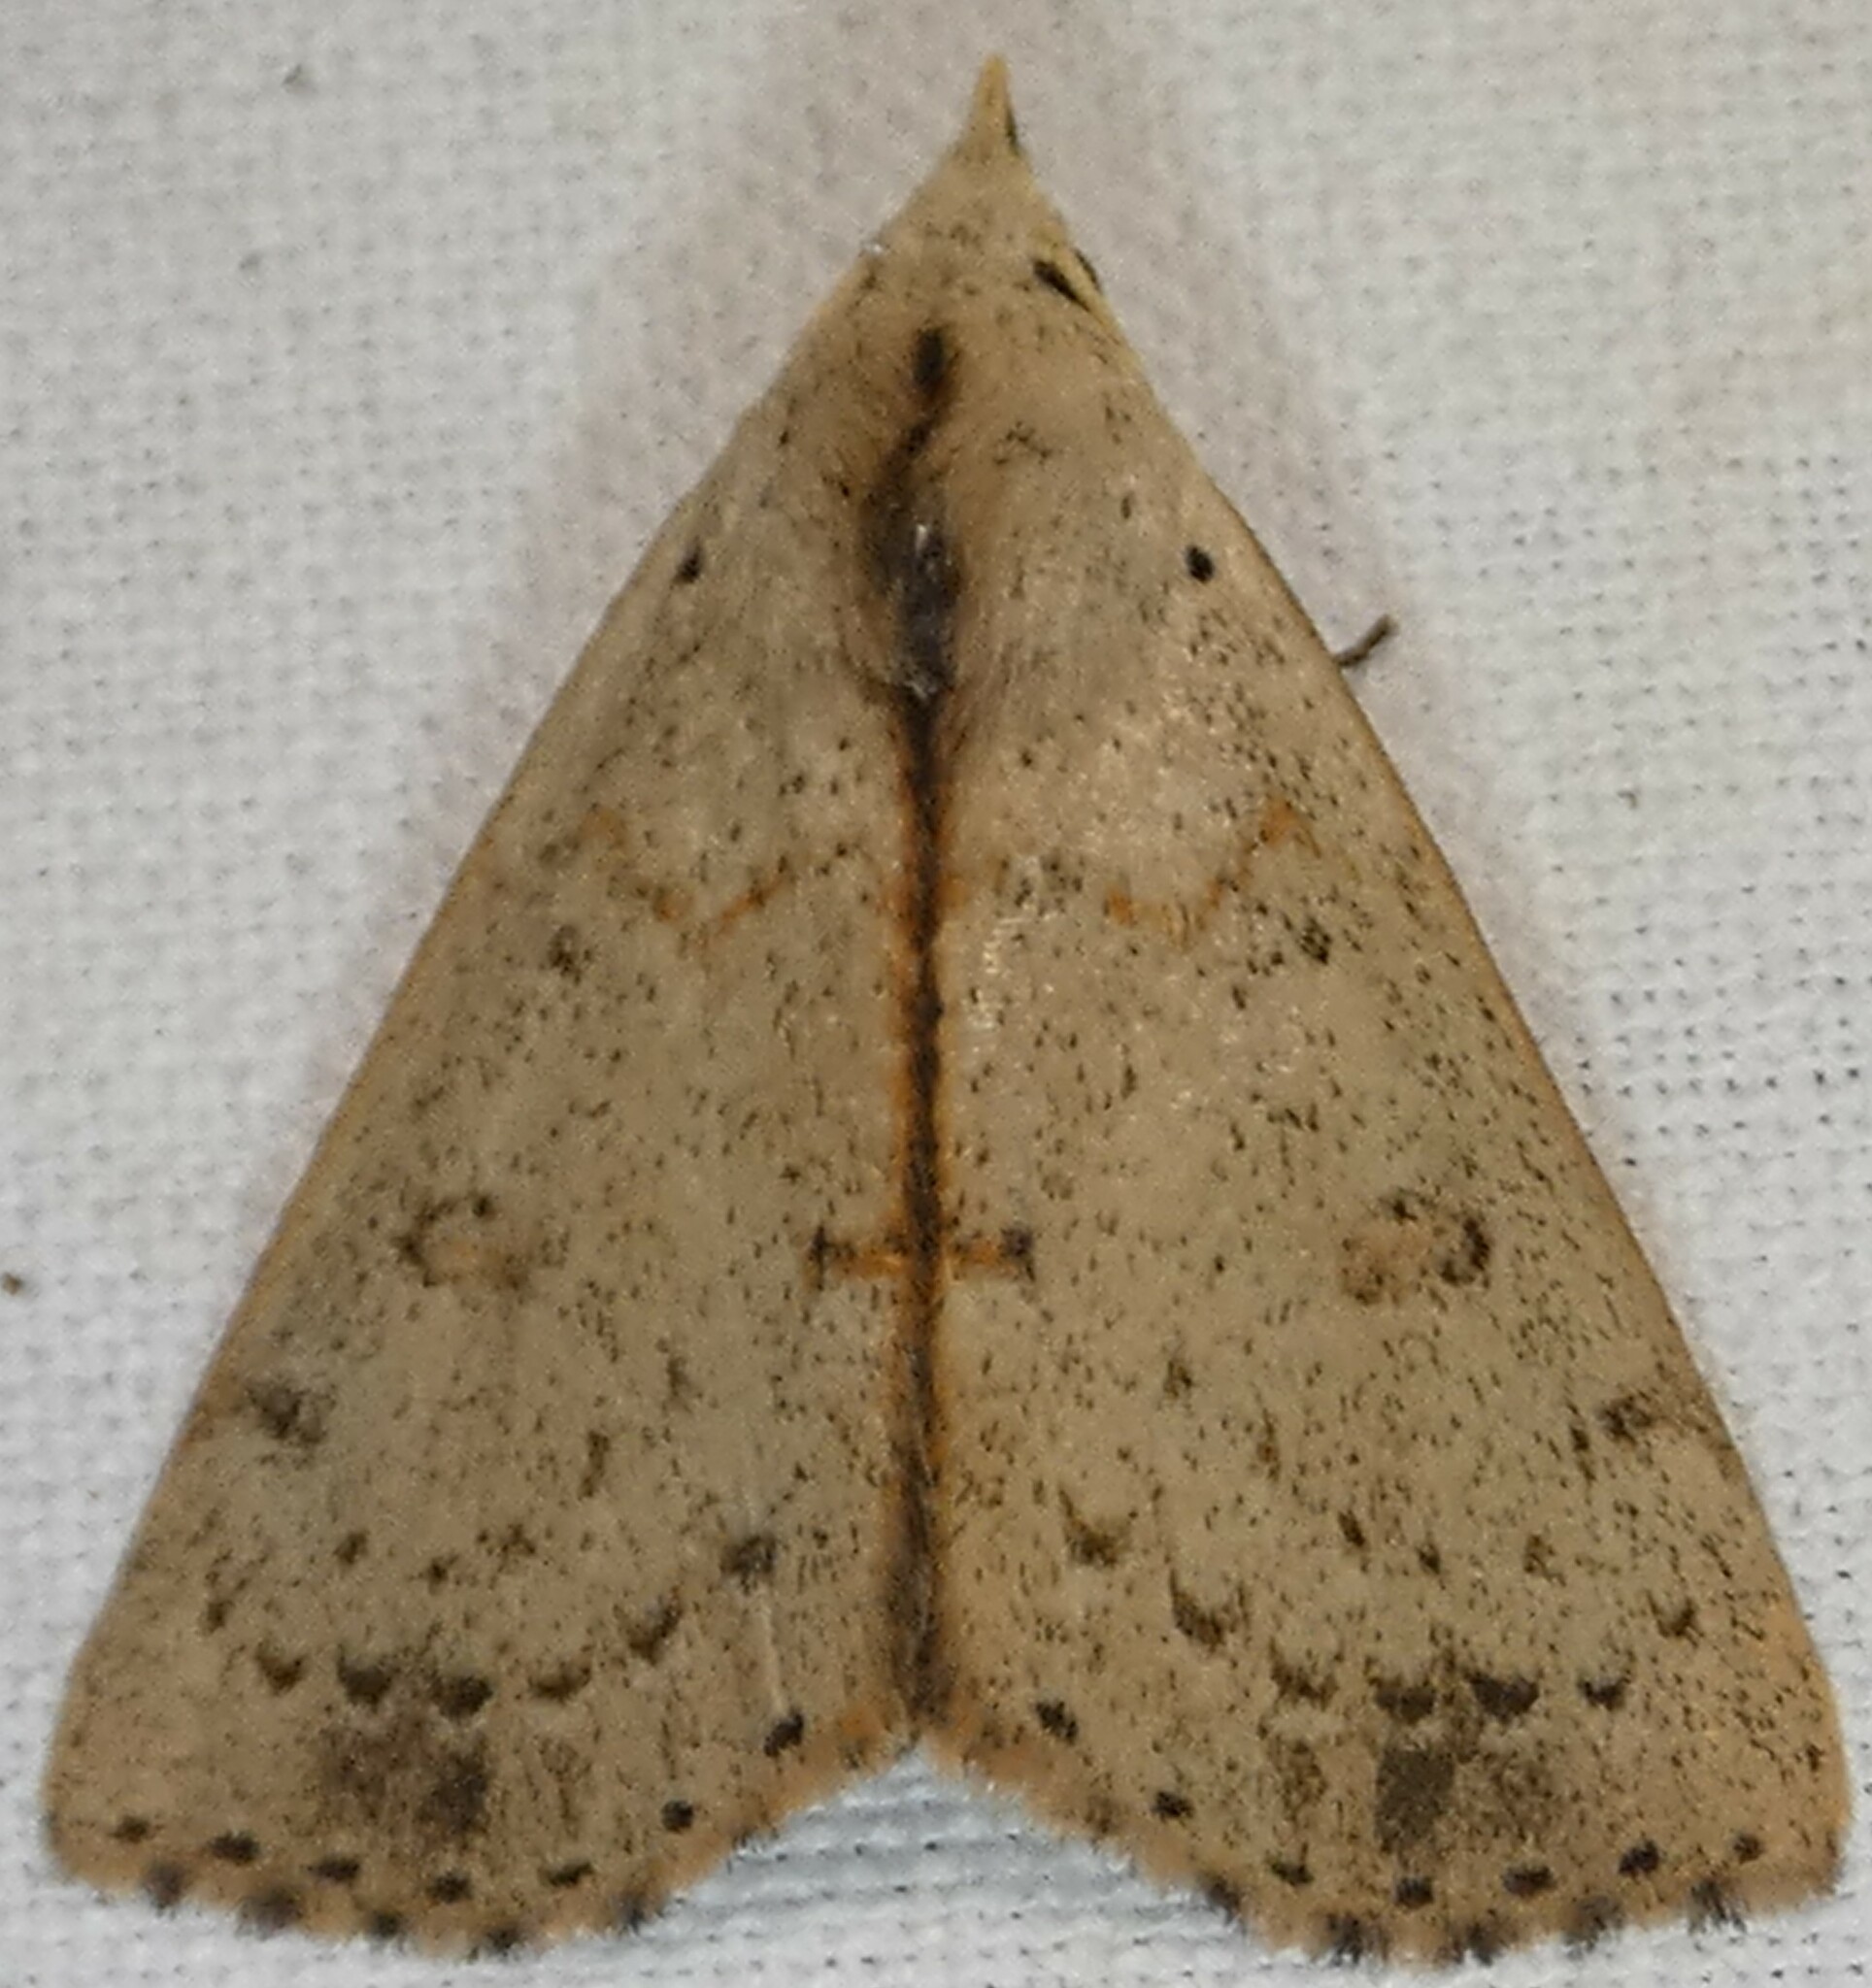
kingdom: Animalia
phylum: Arthropoda
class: Insecta
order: Lepidoptera
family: Erebidae
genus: Scolecocampa
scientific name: Scolecocampa liburna
